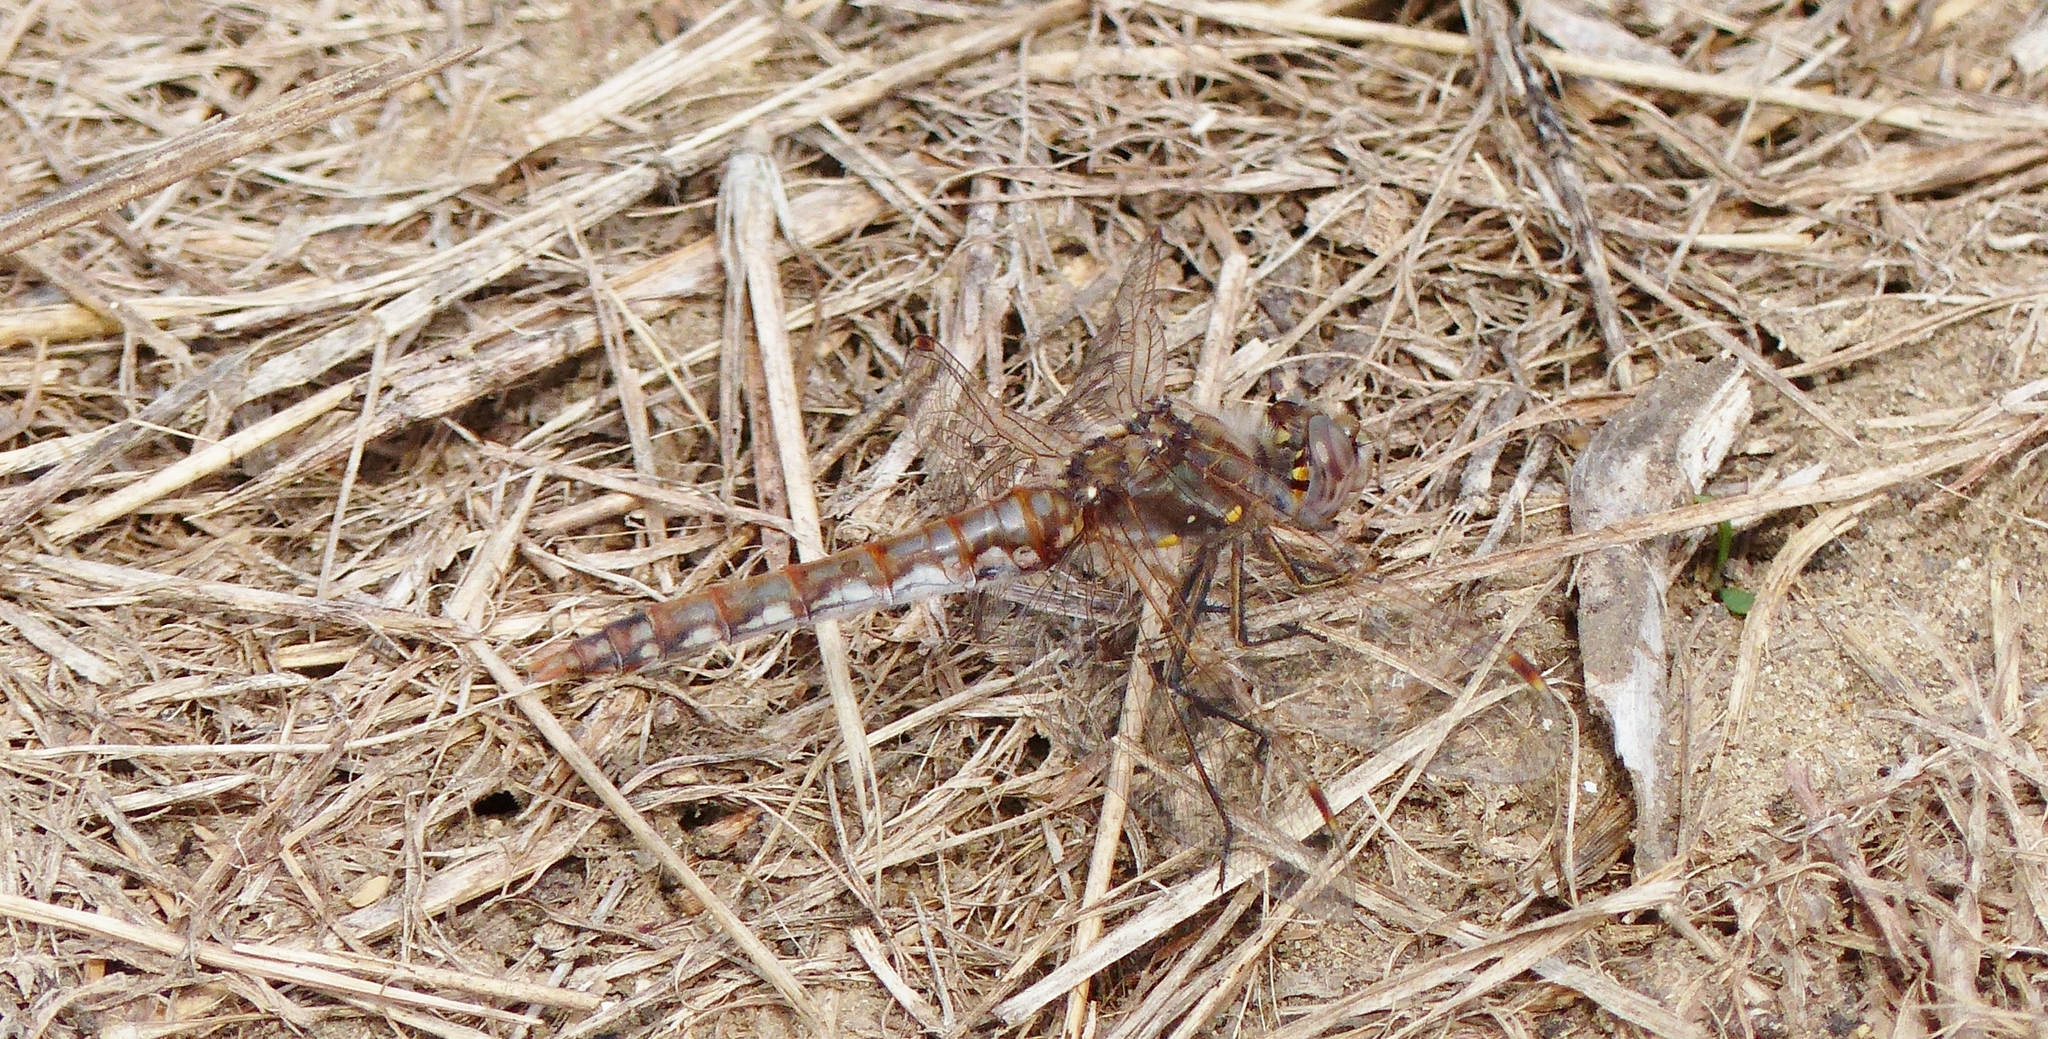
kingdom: Animalia
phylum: Arthropoda
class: Insecta
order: Odonata
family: Libellulidae
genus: Sympetrum
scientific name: Sympetrum corruptum
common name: Variegated meadowhawk
